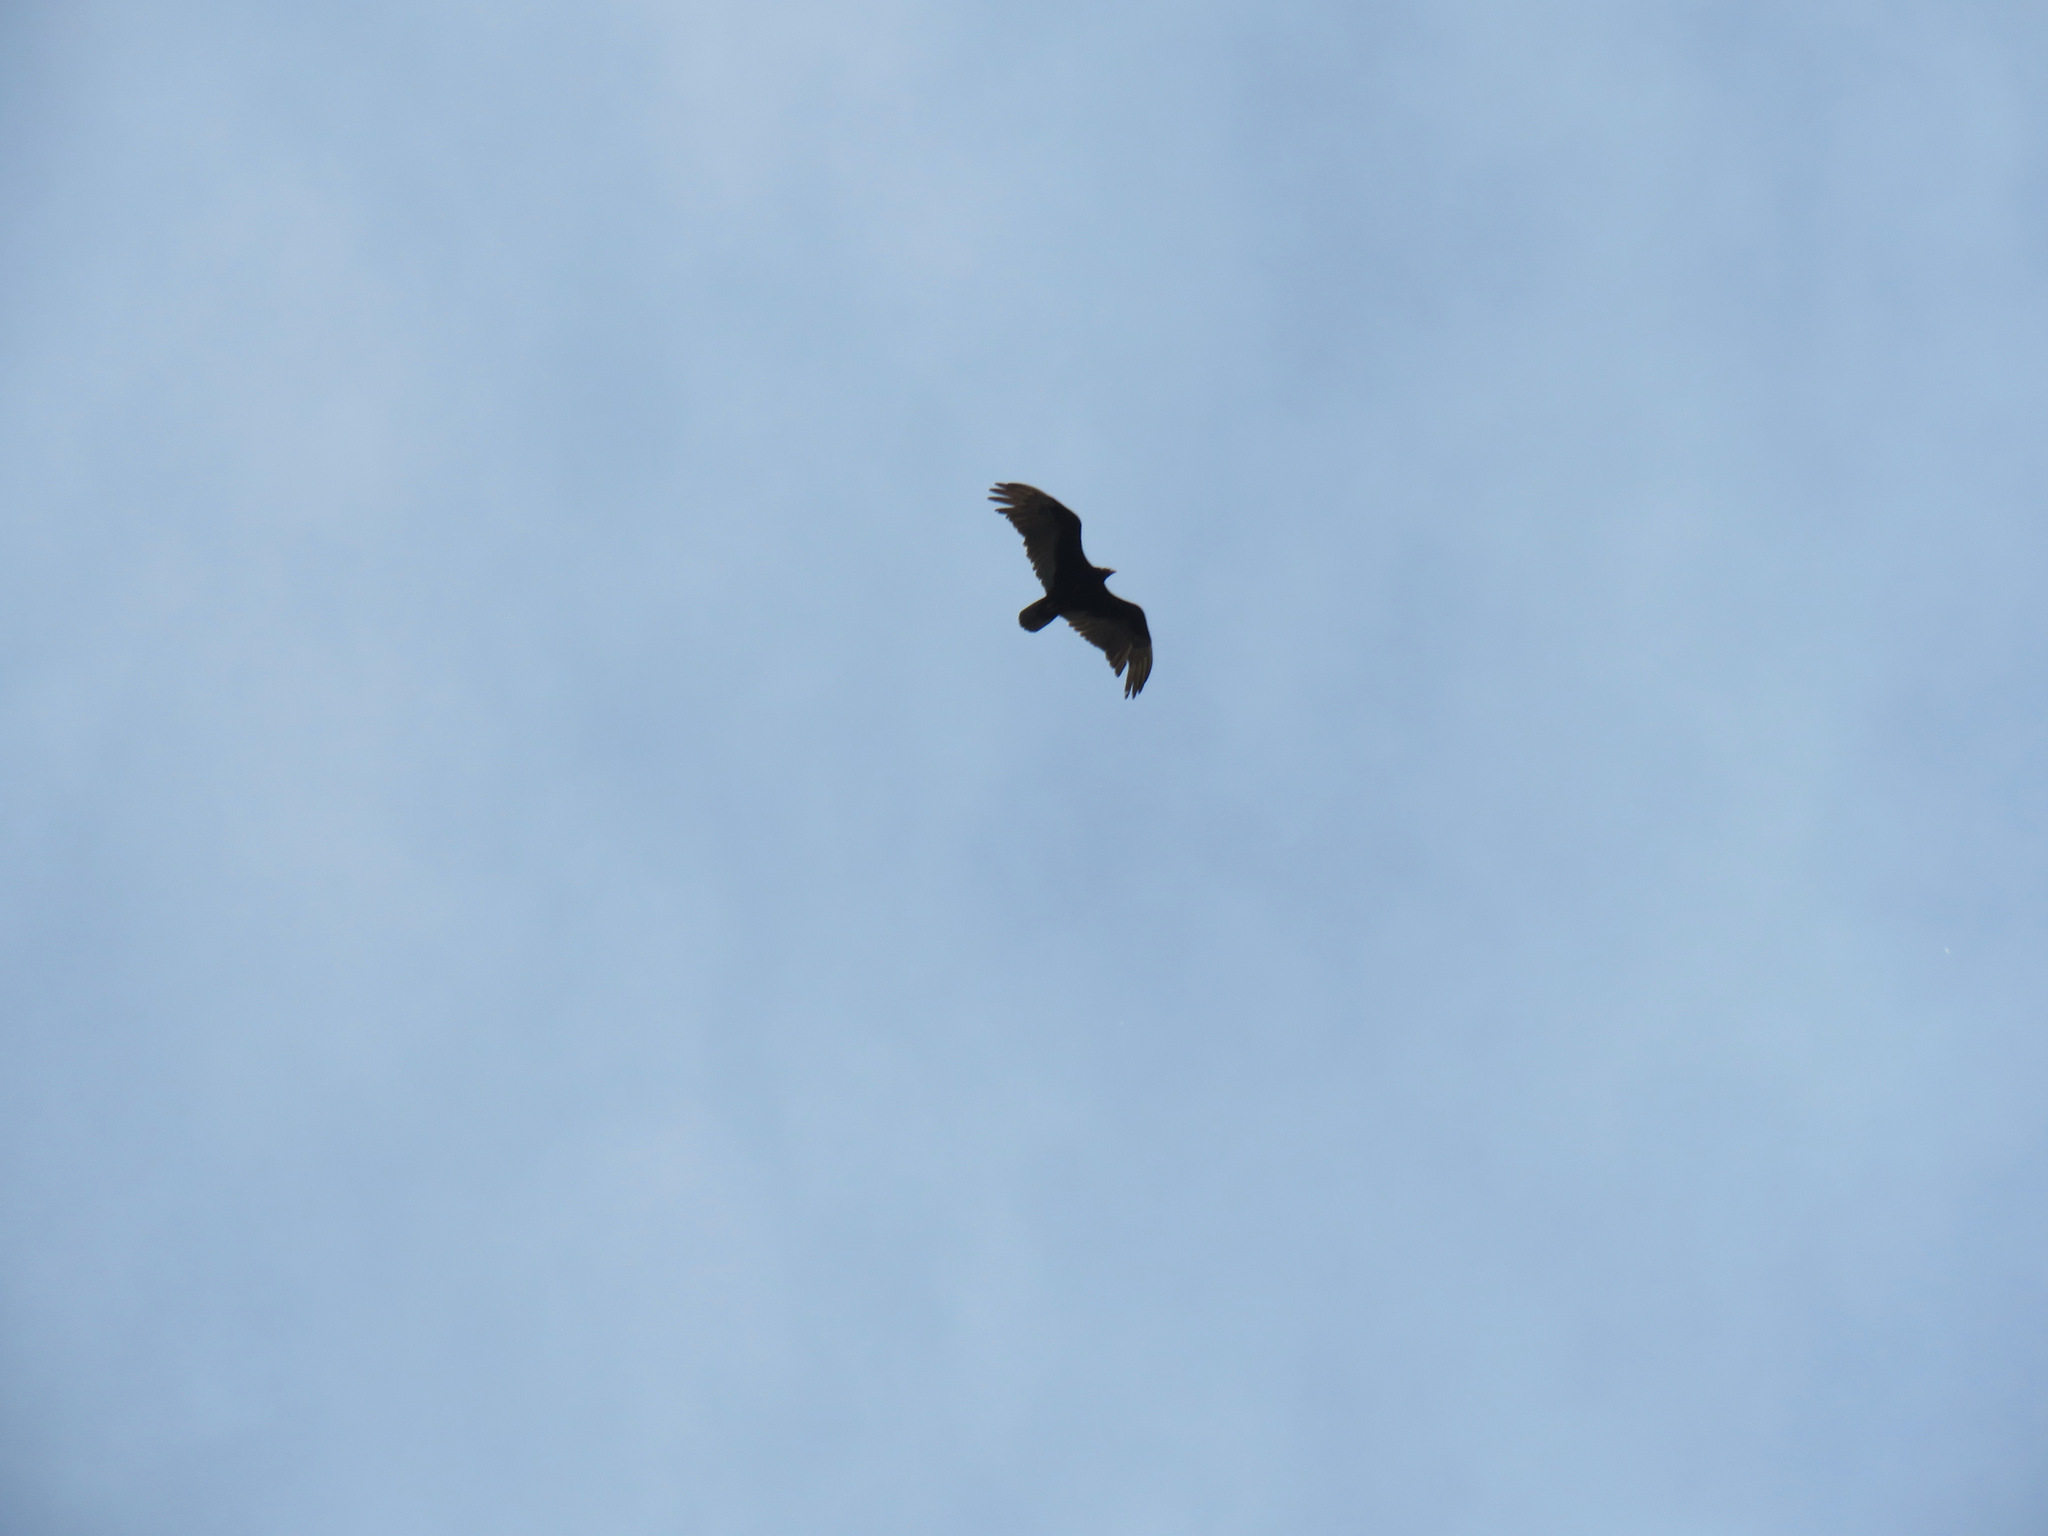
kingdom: Animalia
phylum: Chordata
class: Aves
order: Accipitriformes
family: Cathartidae
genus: Cathartes
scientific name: Cathartes aura
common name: Turkey vulture
